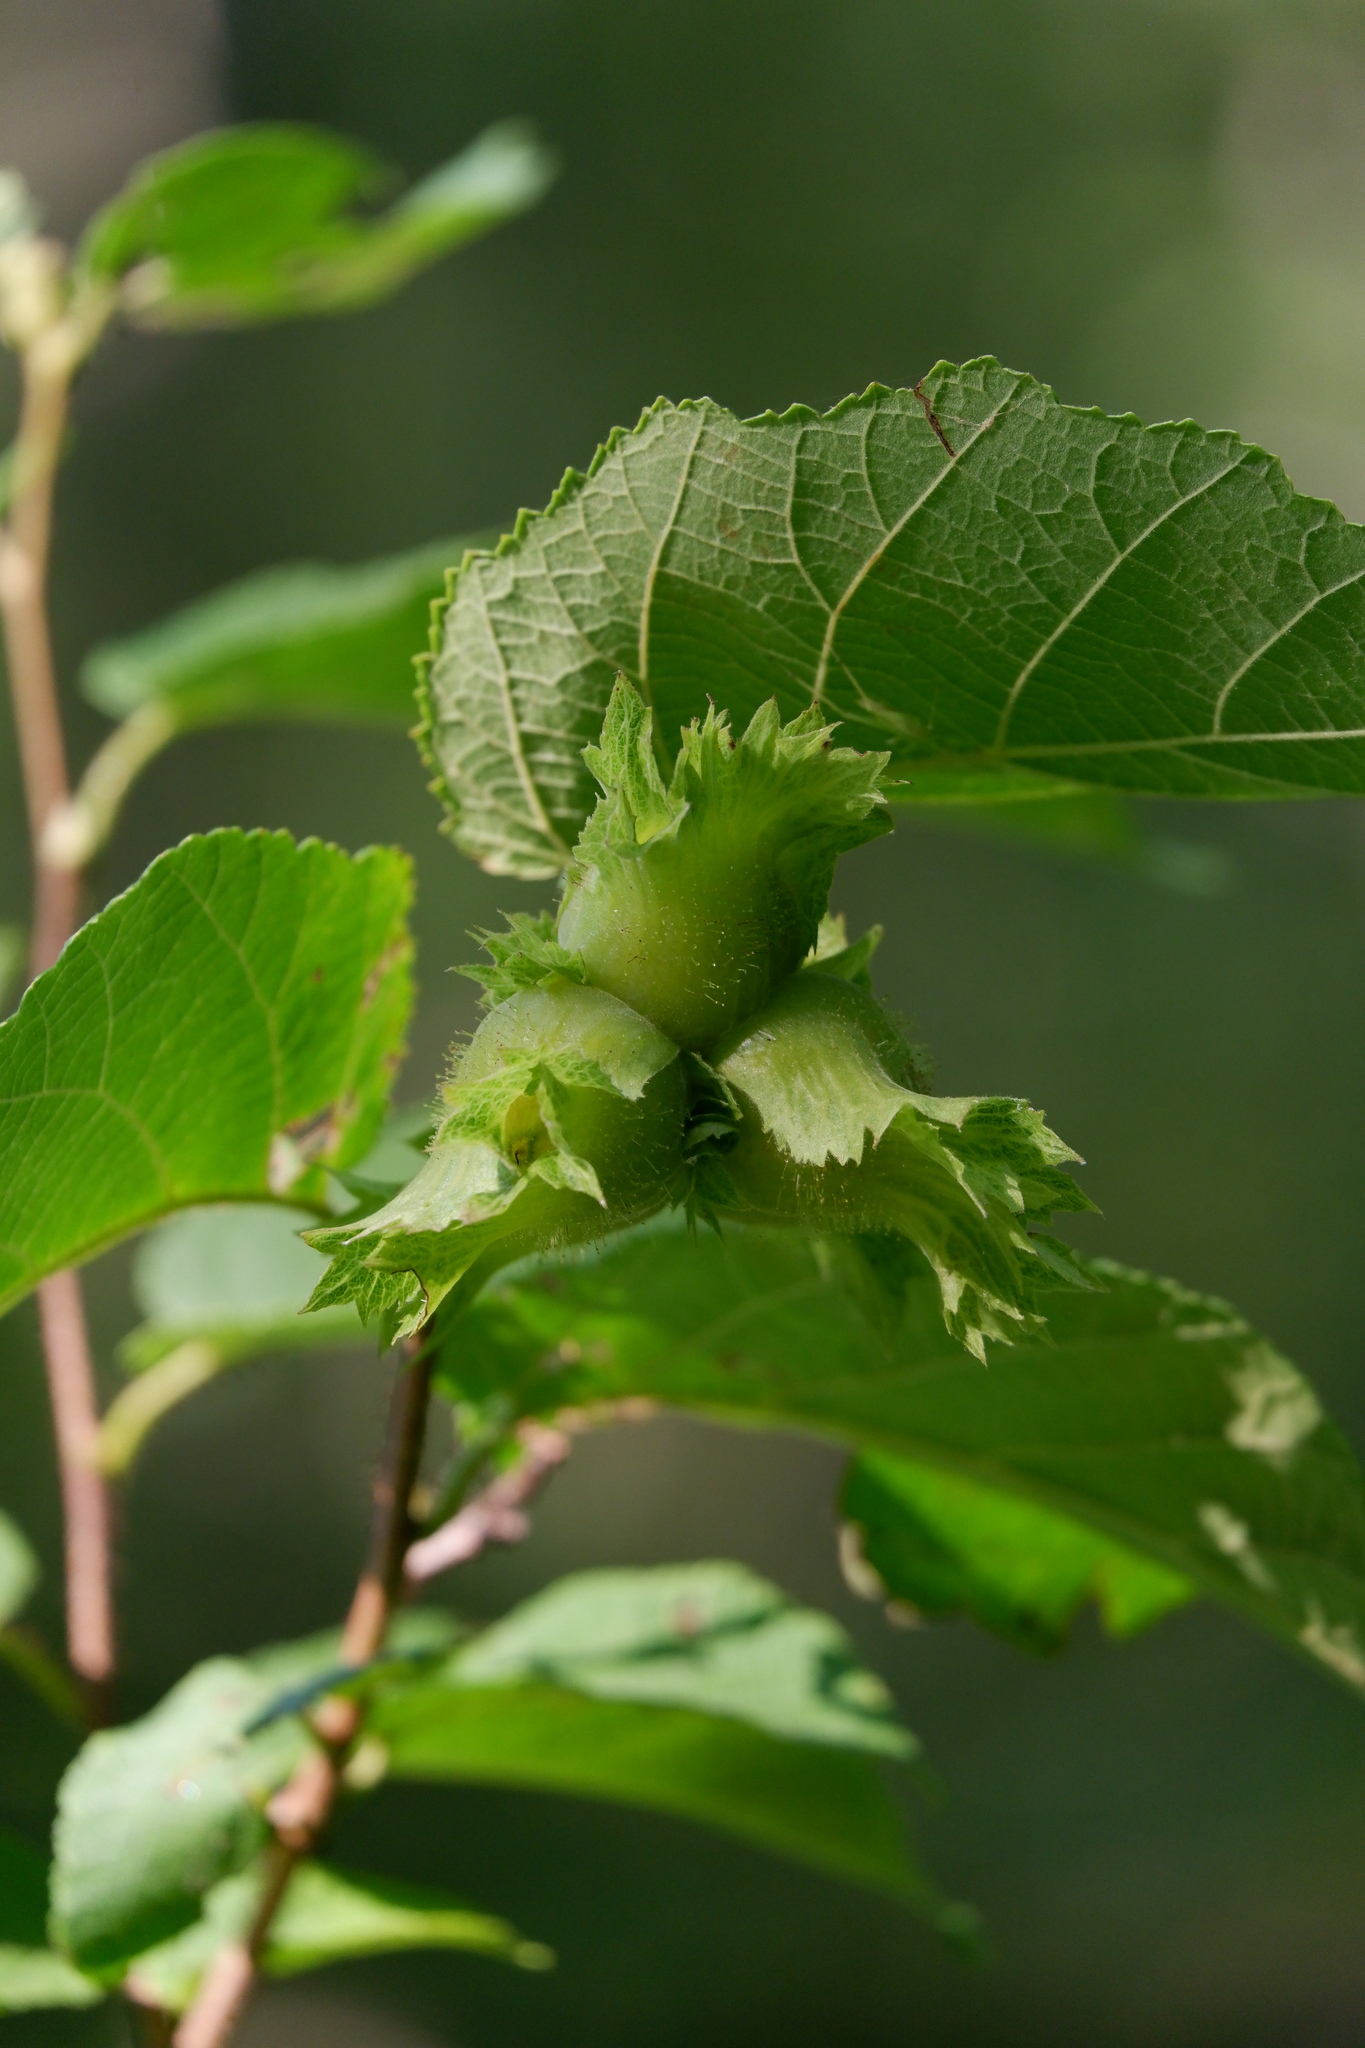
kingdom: Plantae
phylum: Tracheophyta
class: Magnoliopsida
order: Fagales
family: Betulaceae
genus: Corylus
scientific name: Corylus americana
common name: American hazel
